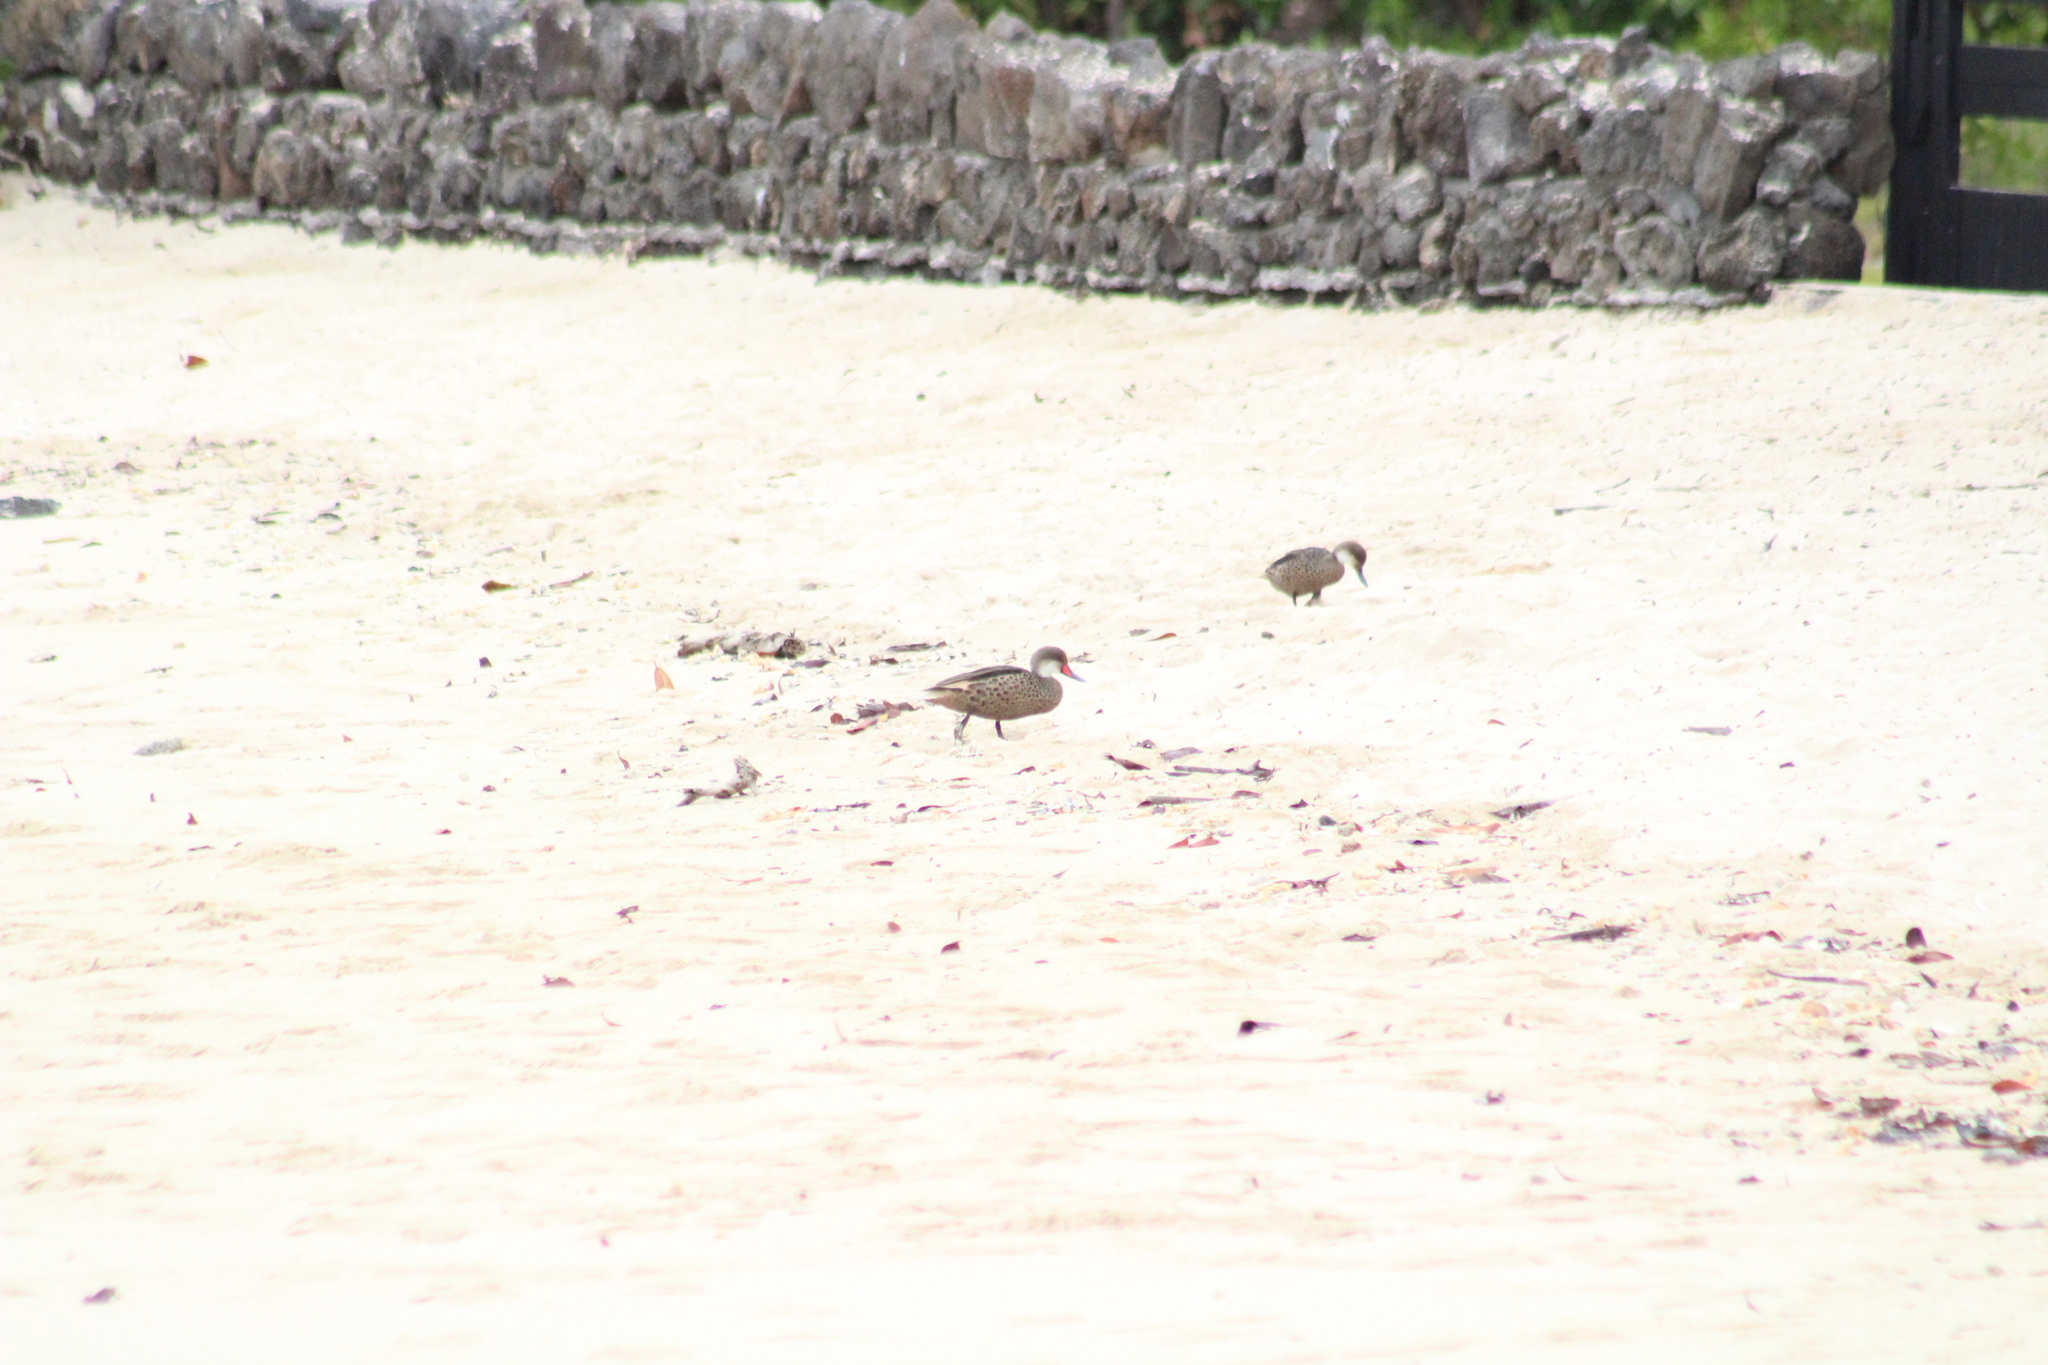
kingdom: Animalia
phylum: Chordata
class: Aves
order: Anseriformes
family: Anatidae
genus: Anas
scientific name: Anas bahamensis
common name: White-cheeked pintail
